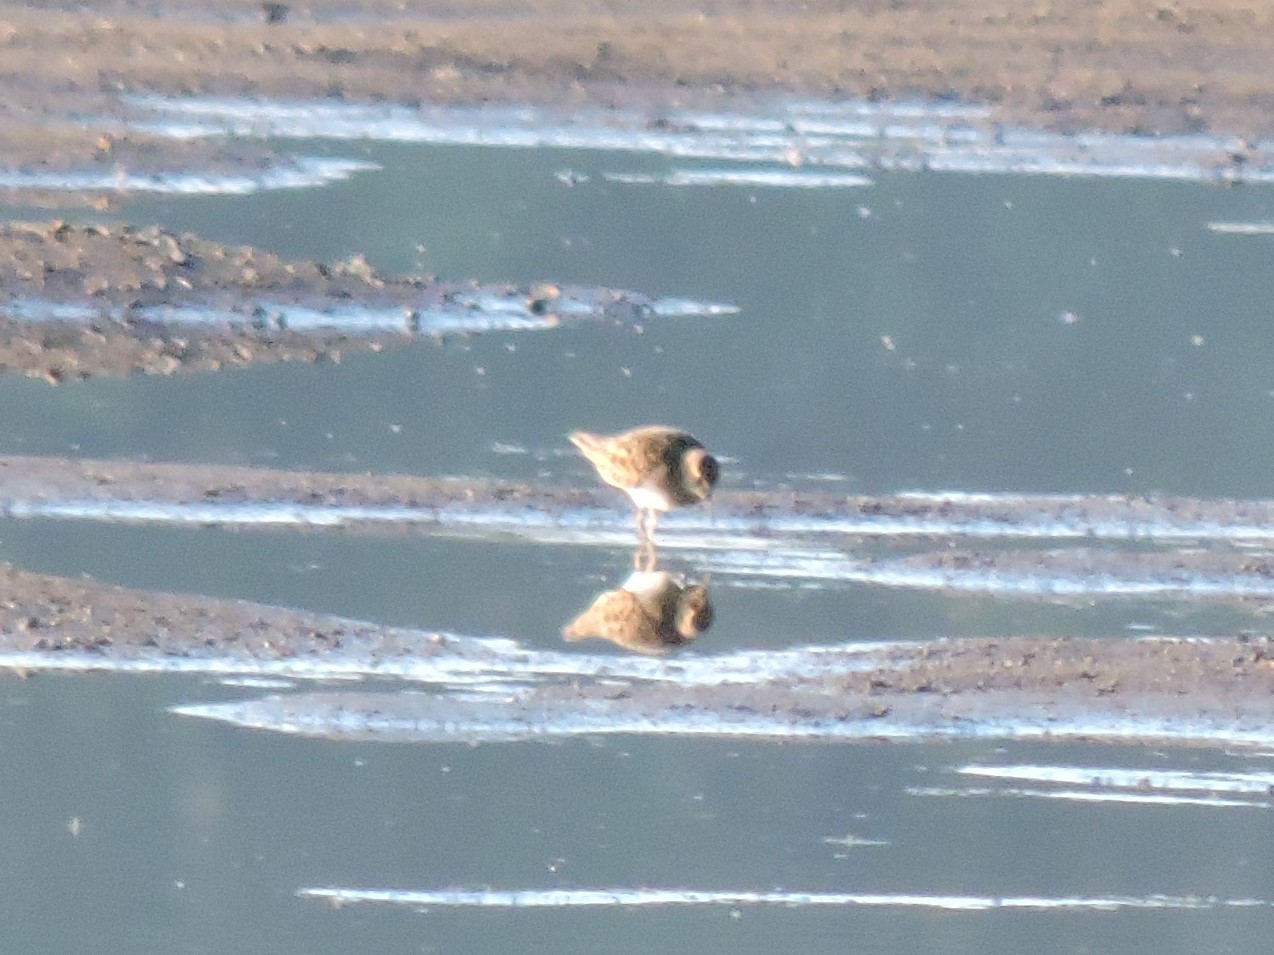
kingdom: Animalia
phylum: Chordata
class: Aves
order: Charadriiformes
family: Scolopacidae
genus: Calidris
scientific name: Calidris temminckii
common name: Temminck's stint
